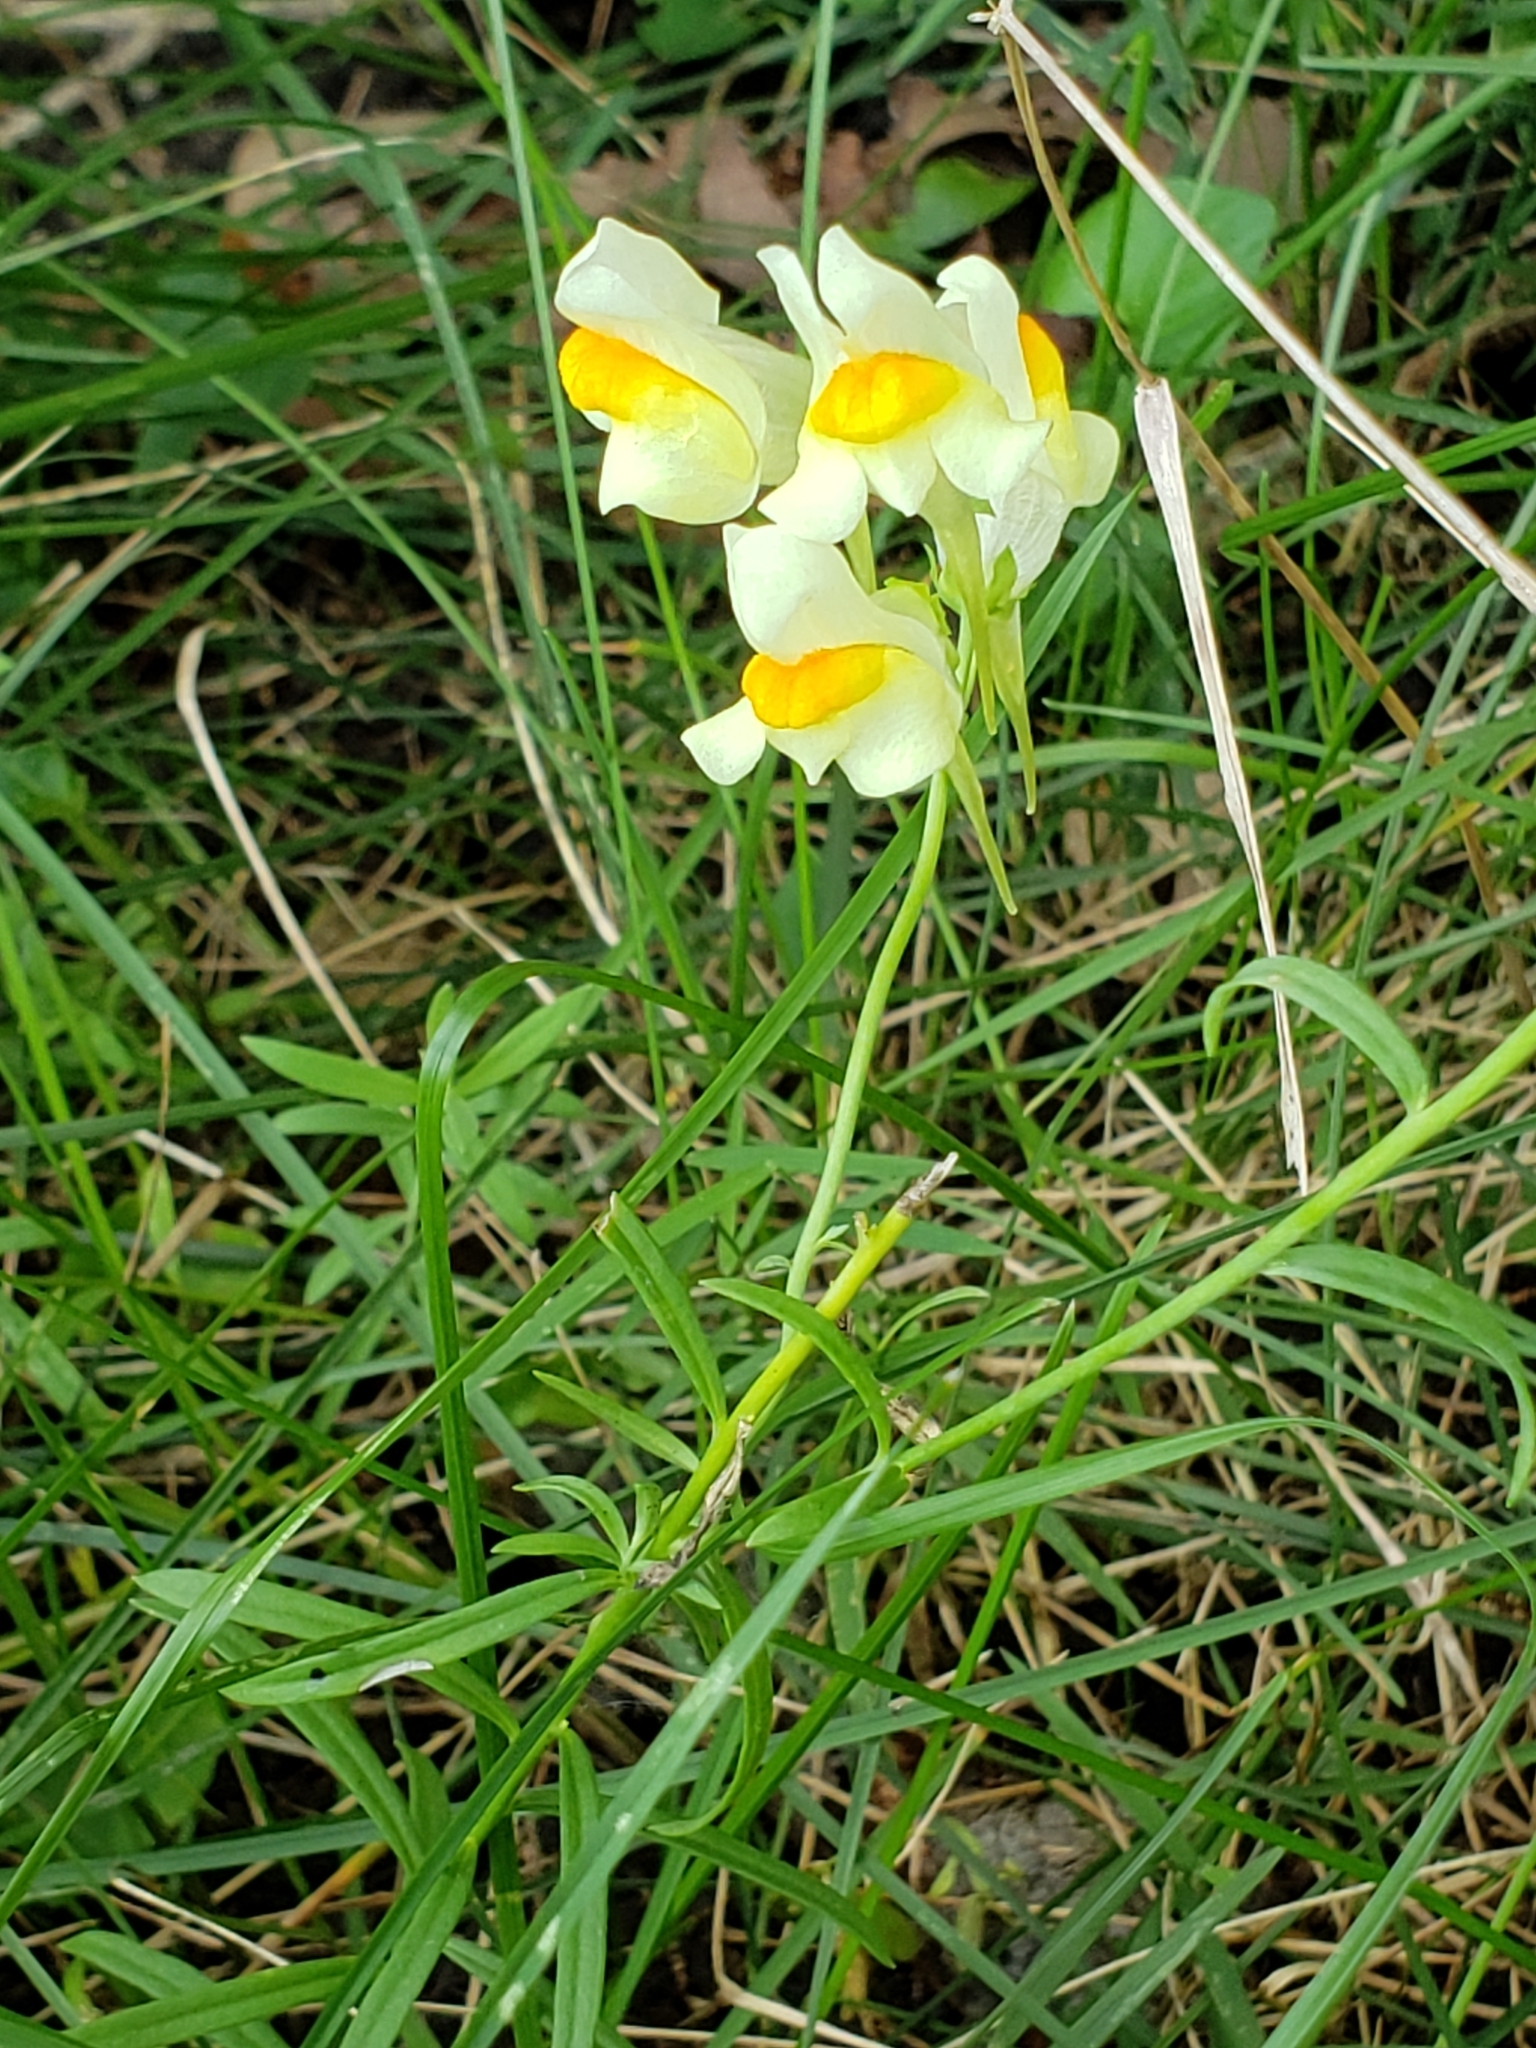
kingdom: Plantae
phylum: Tracheophyta
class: Magnoliopsida
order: Lamiales
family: Plantaginaceae
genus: Linaria
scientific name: Linaria vulgaris
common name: Butter and eggs
